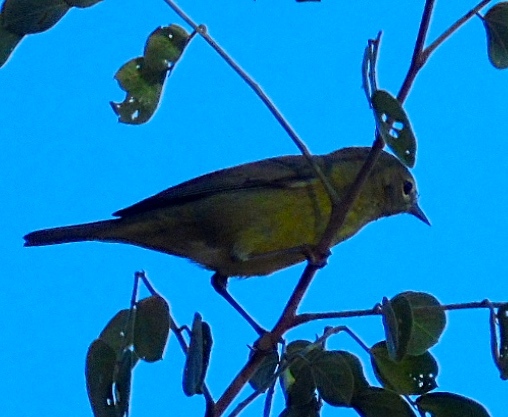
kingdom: Animalia
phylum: Chordata
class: Aves
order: Passeriformes
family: Parulidae
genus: Leiothlypis
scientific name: Leiothlypis celata
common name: Orange-crowned warbler
